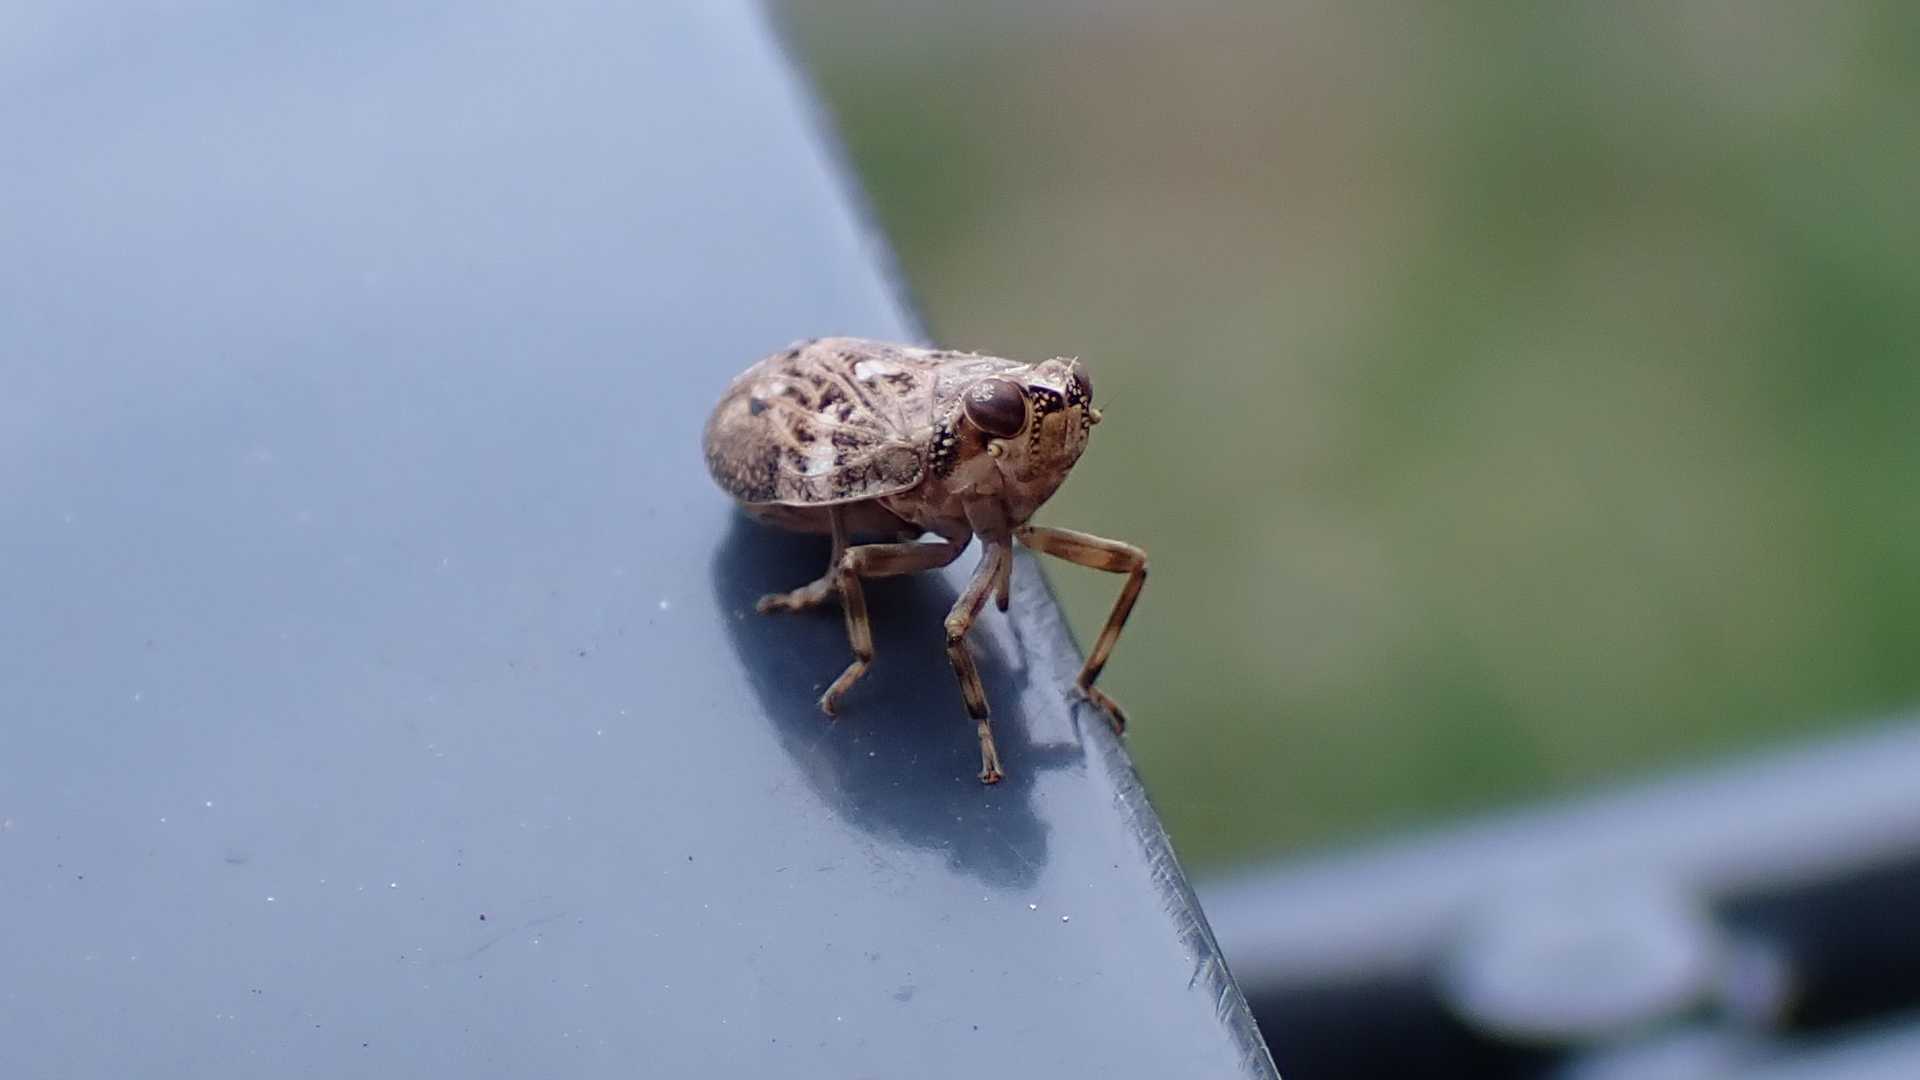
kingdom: Animalia
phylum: Arthropoda
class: Insecta
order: Hemiptera
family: Issidae
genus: Issus
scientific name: Issus coleoptratus
